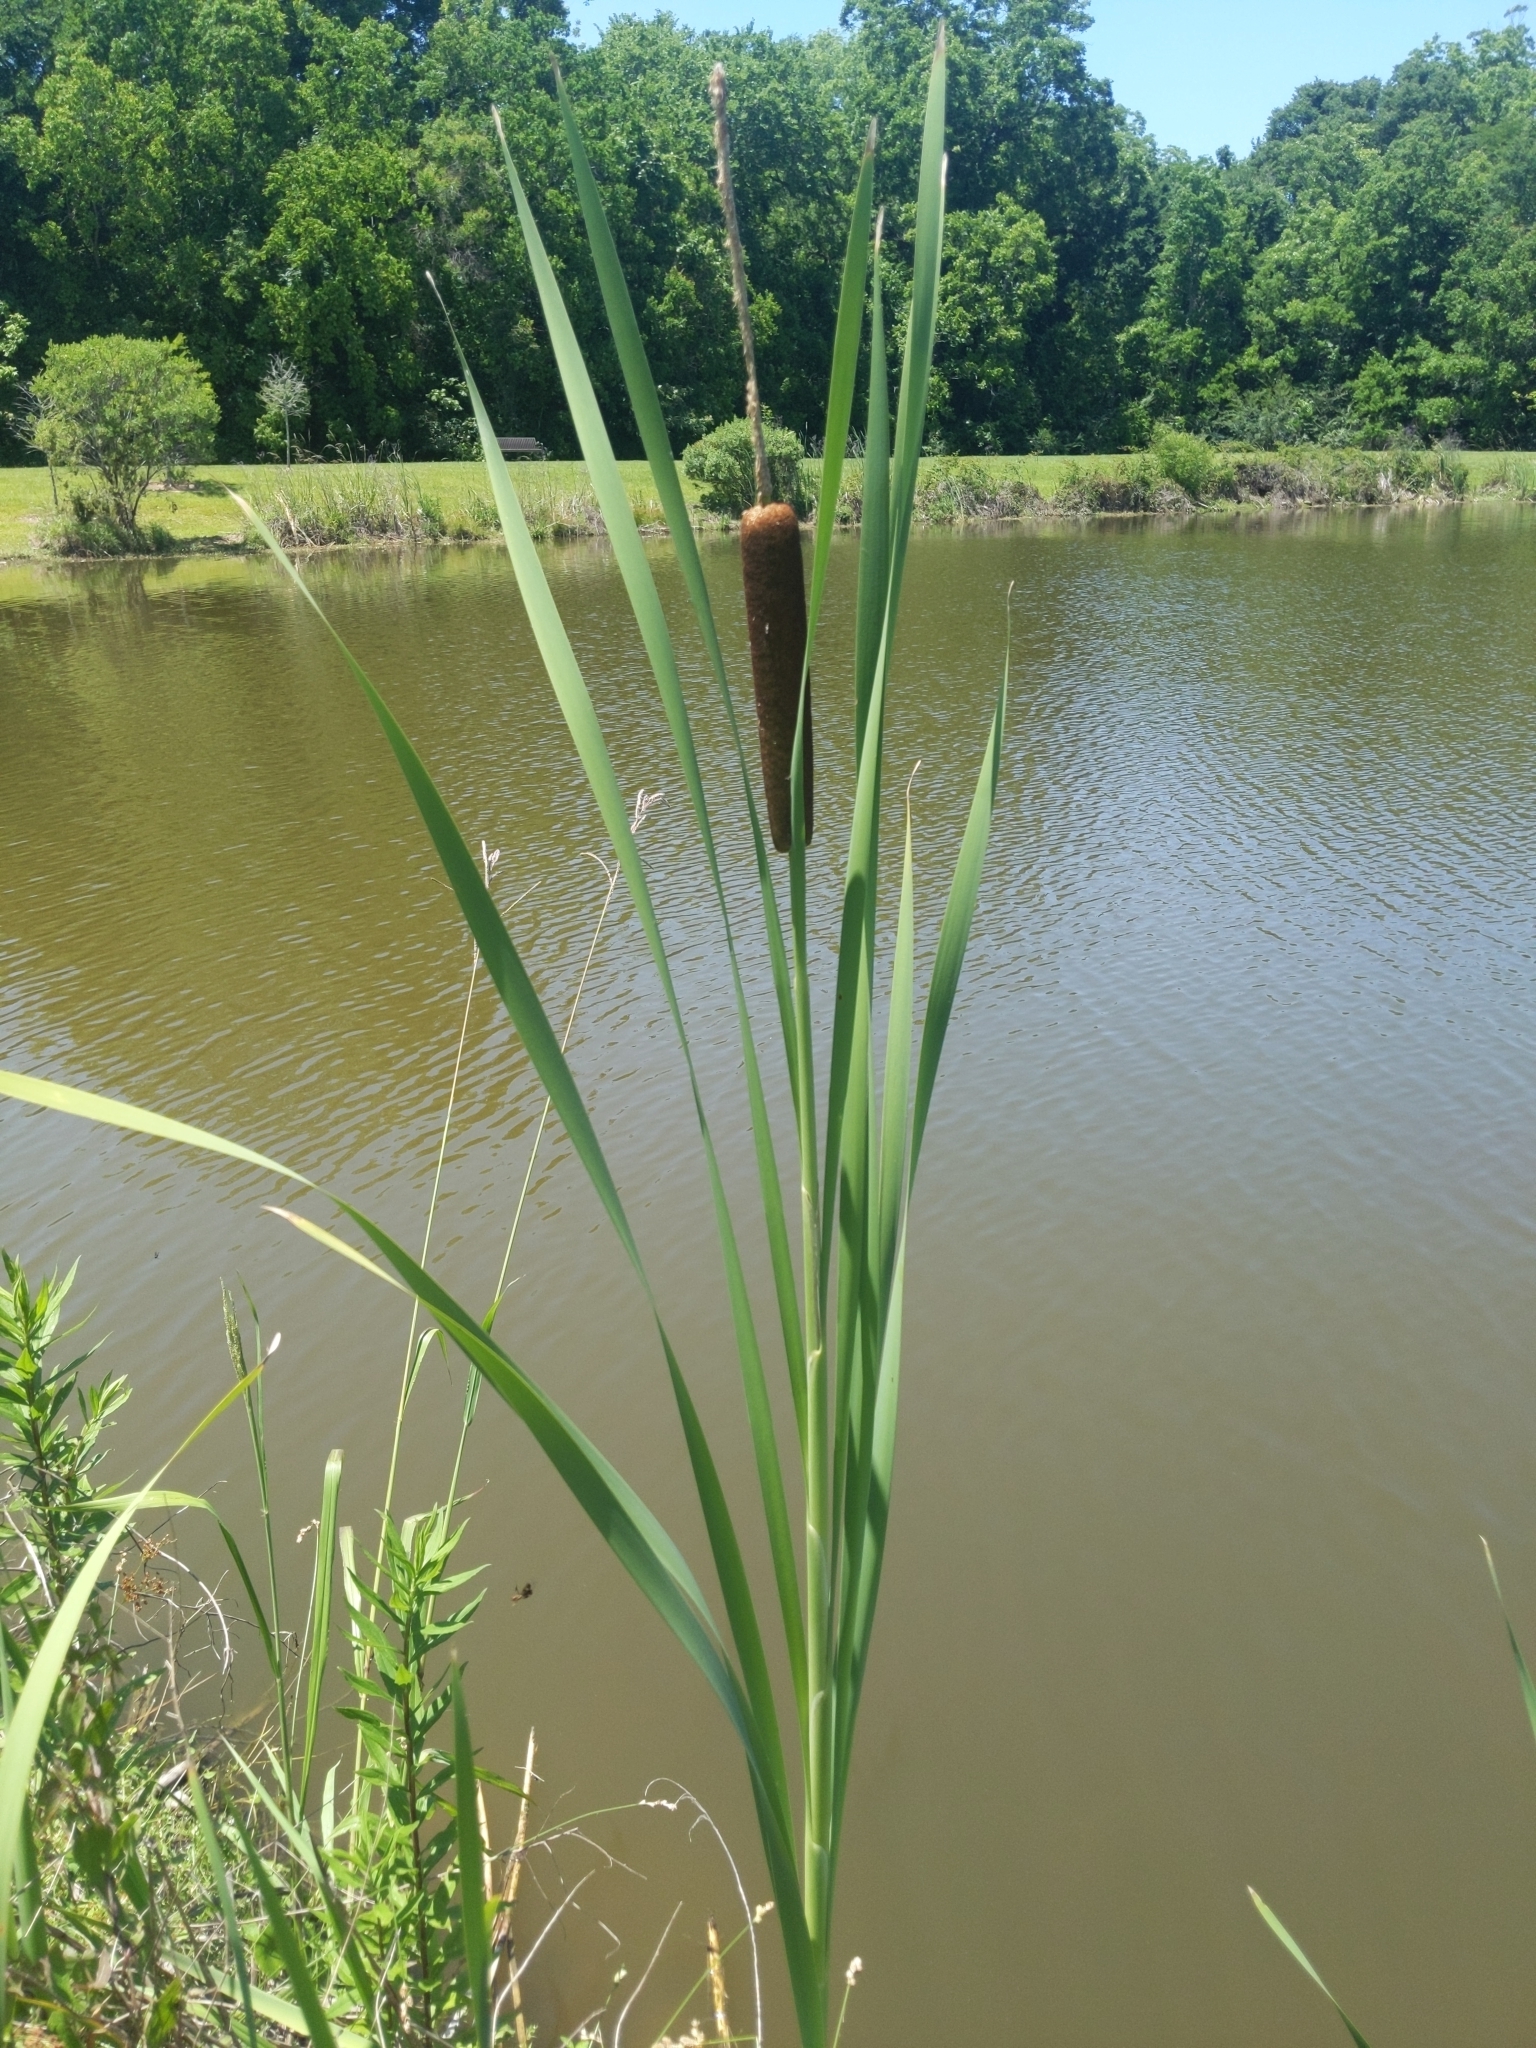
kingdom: Plantae
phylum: Tracheophyta
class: Liliopsida
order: Poales
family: Typhaceae
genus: Typha
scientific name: Typha latifolia
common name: Broadleaf cattail
